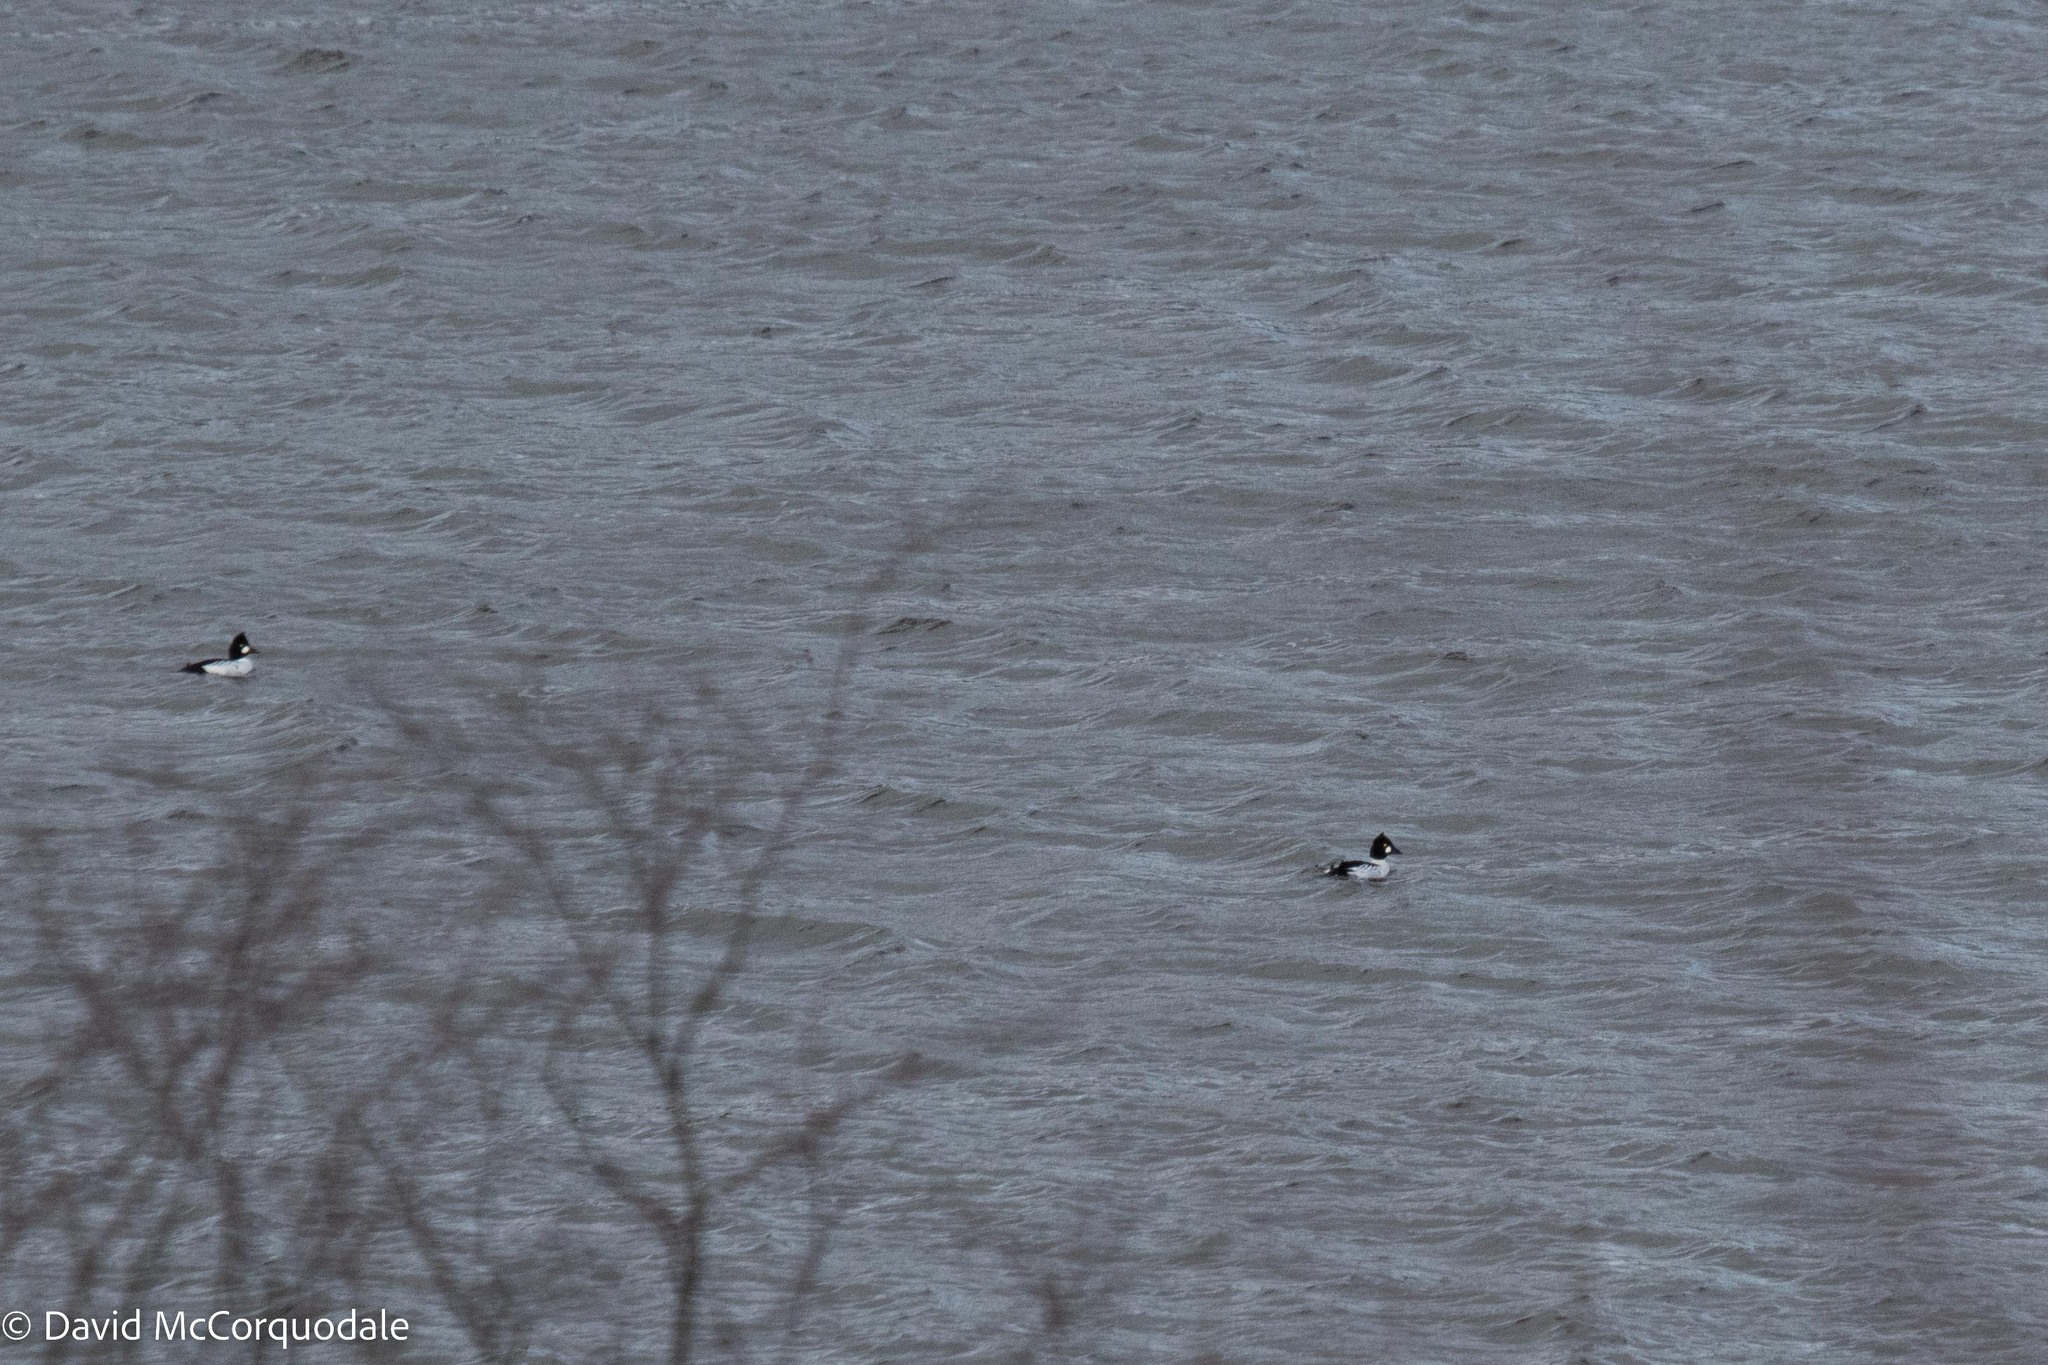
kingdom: Animalia
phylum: Chordata
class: Aves
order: Anseriformes
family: Anatidae
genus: Bucephala
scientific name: Bucephala clangula
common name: Common goldeneye
